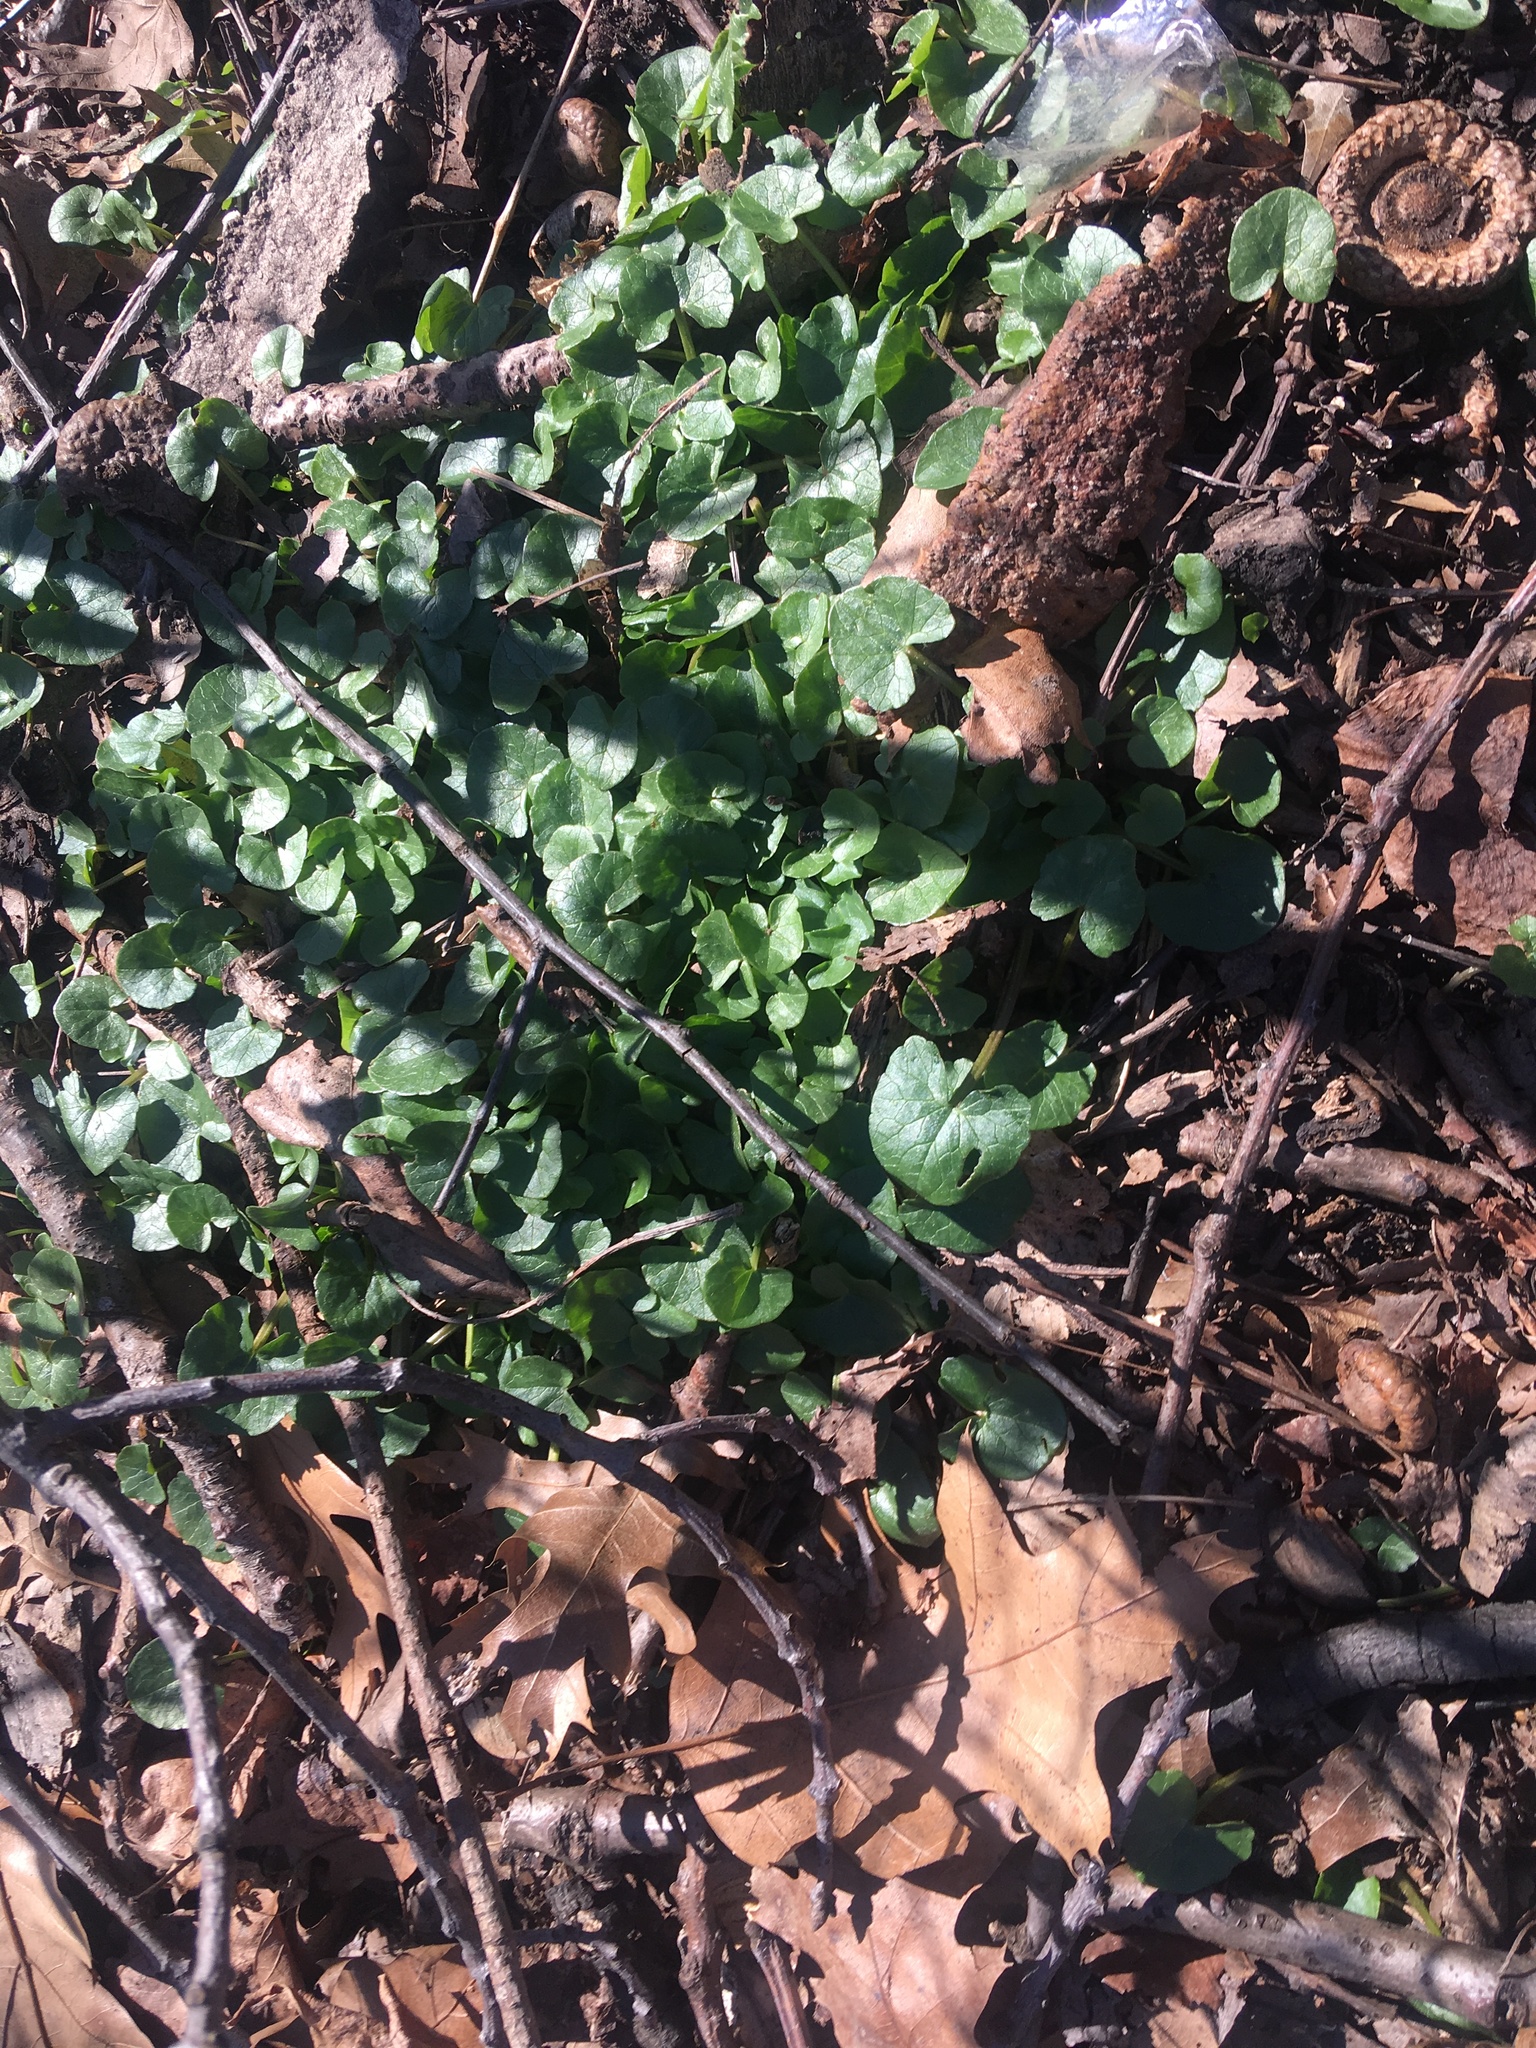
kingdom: Plantae
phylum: Tracheophyta
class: Magnoliopsida
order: Ranunculales
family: Ranunculaceae
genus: Ficaria
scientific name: Ficaria verna
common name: Lesser celandine
